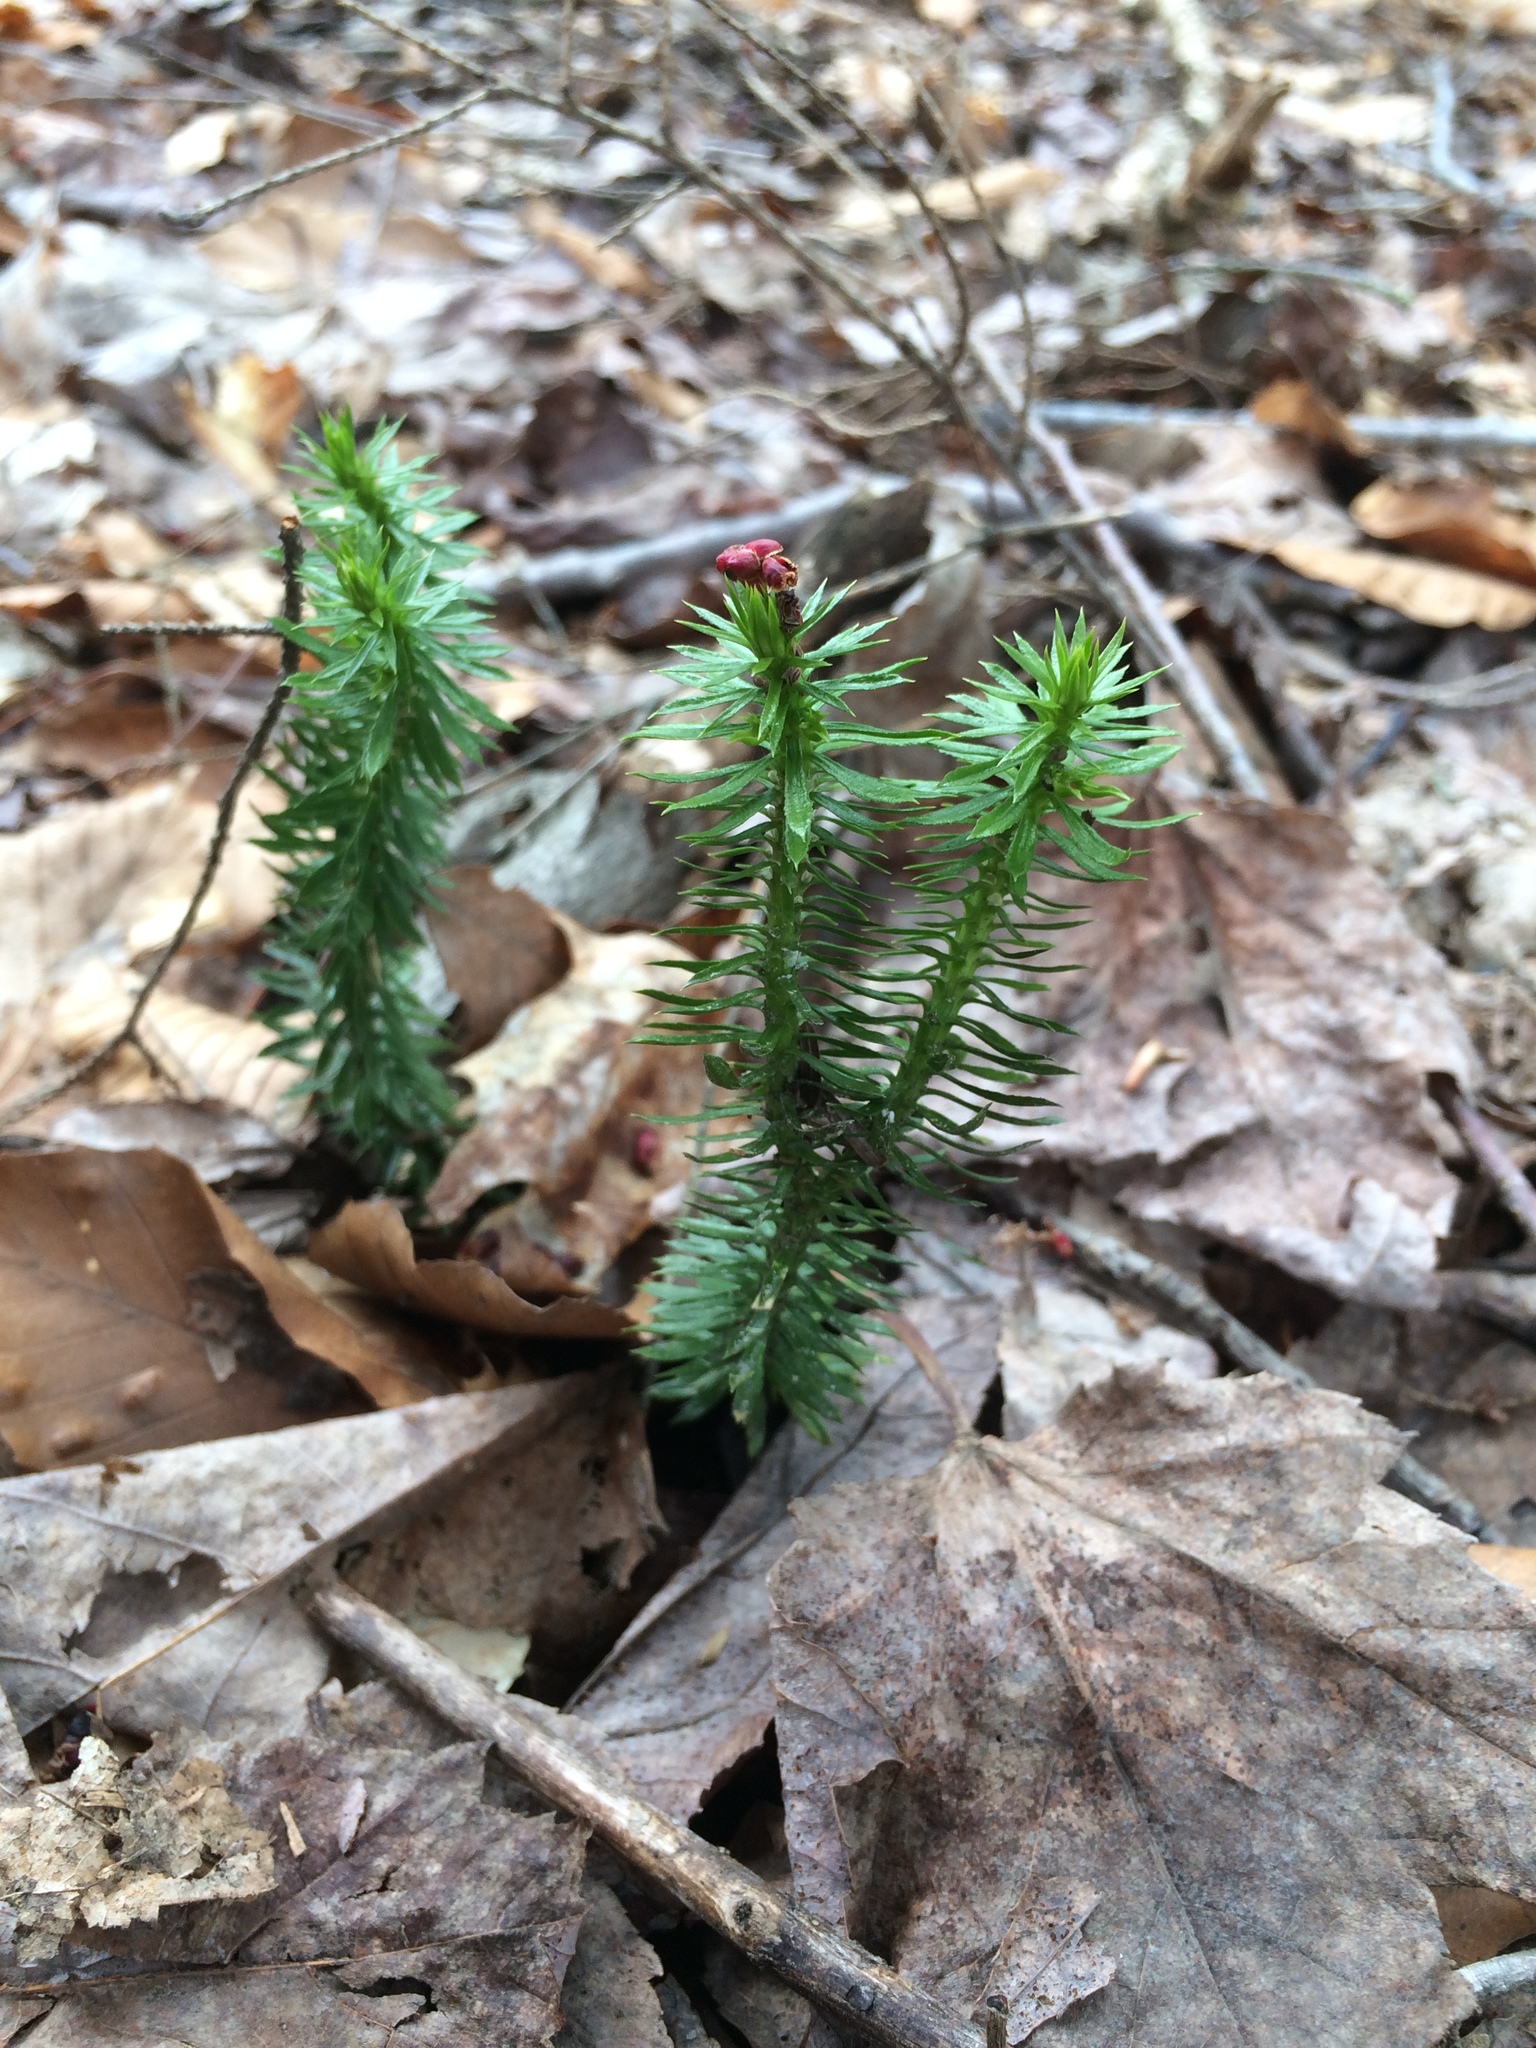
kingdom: Plantae
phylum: Tracheophyta
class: Lycopodiopsida
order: Lycopodiales
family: Lycopodiaceae
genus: Huperzia
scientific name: Huperzia lucidula
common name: Shining clubmoss
